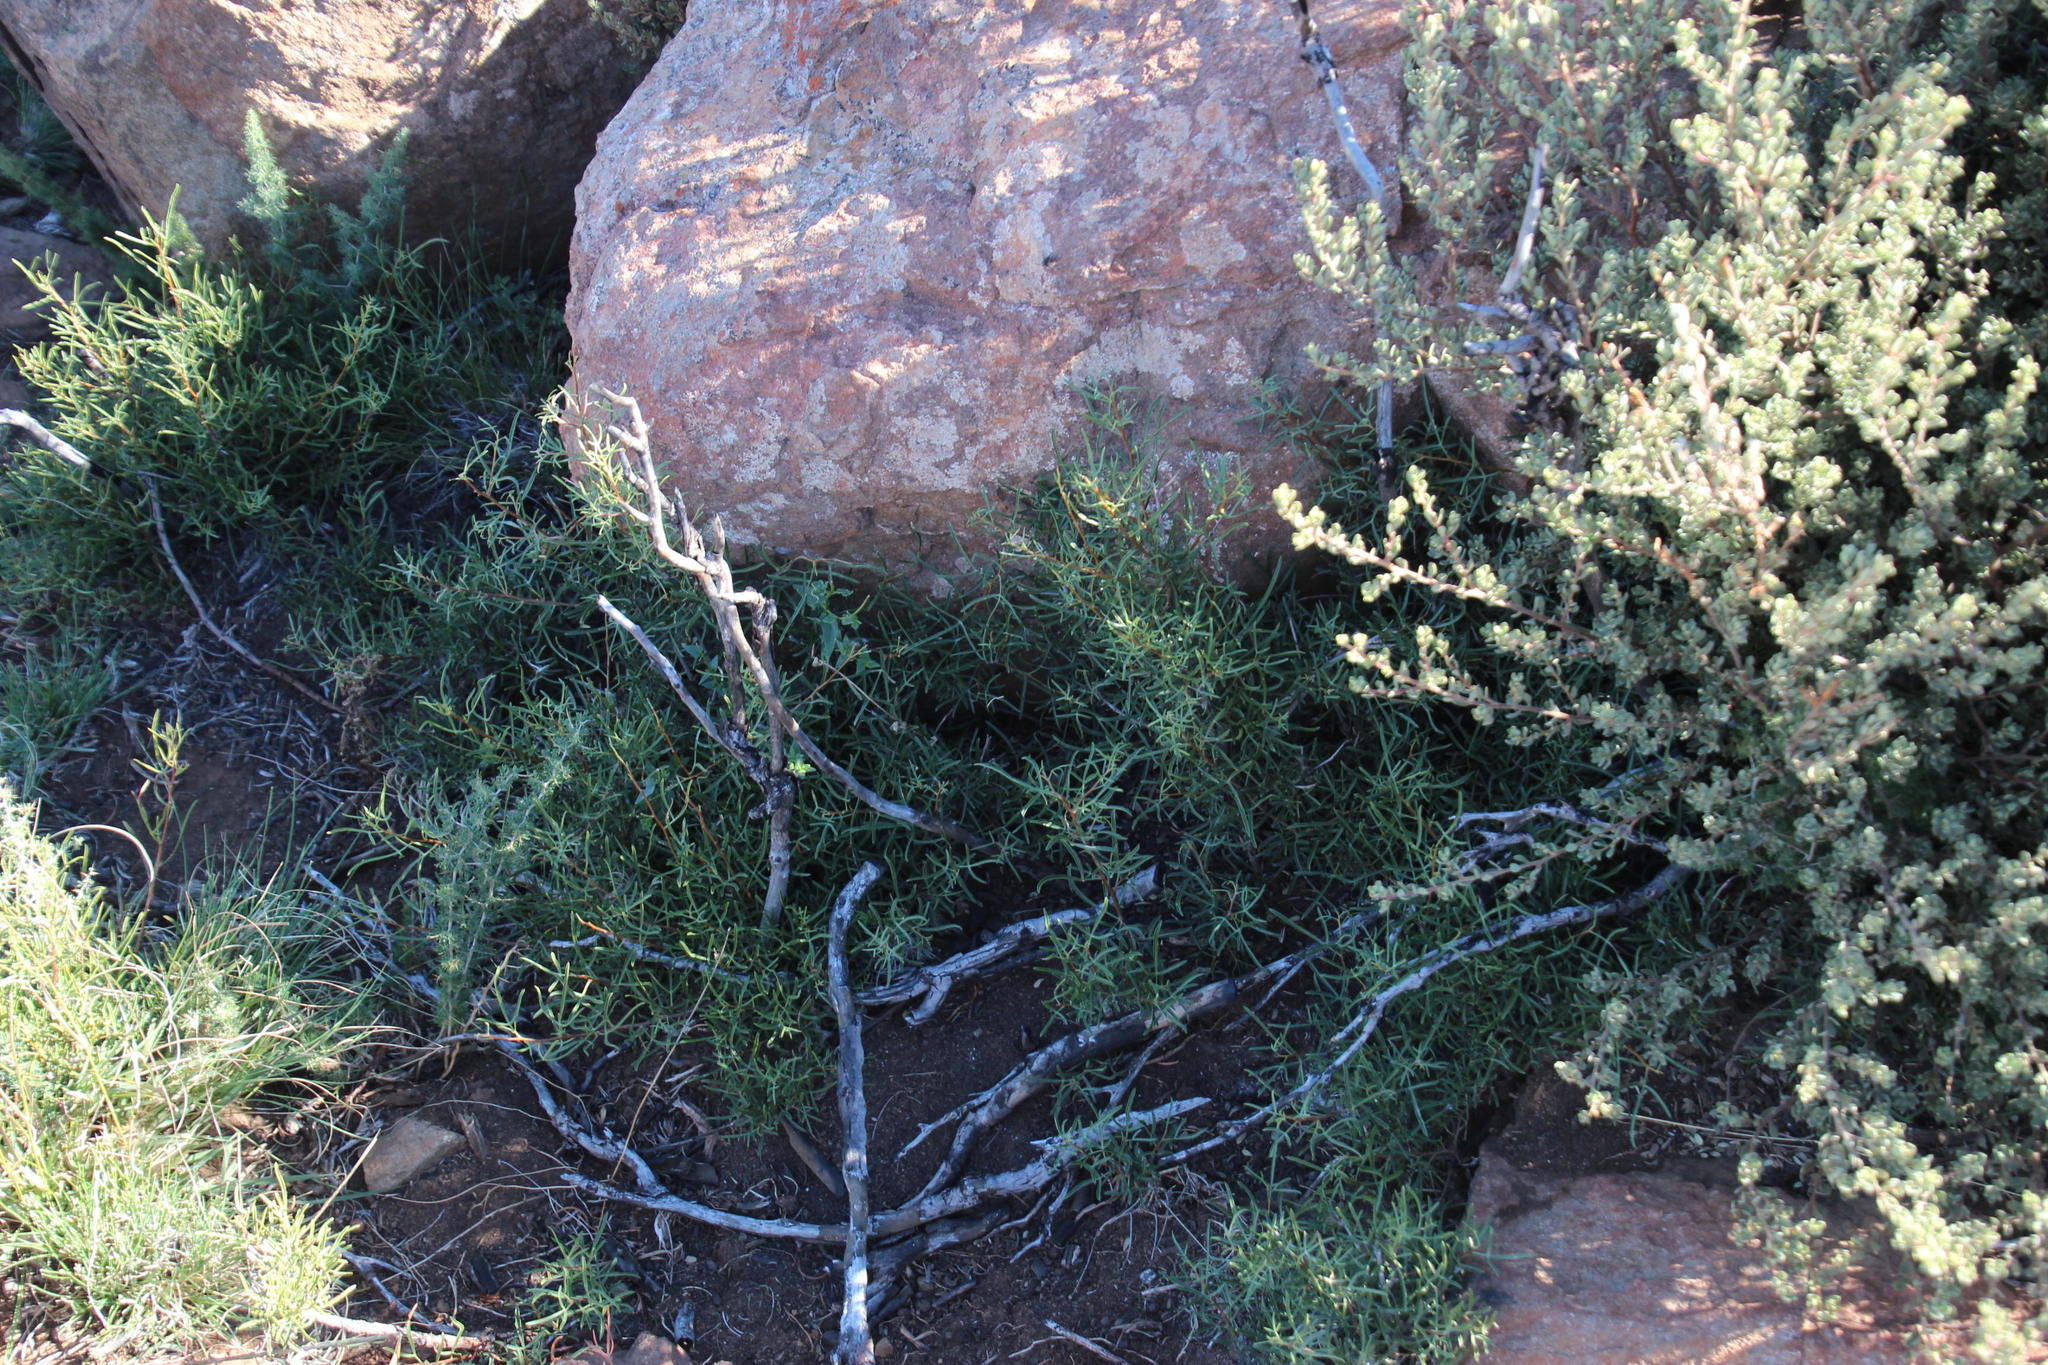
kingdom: Plantae
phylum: Tracheophyta
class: Magnoliopsida
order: Sapindales
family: Anacardiaceae
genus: Searsia
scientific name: Searsia dregeana
